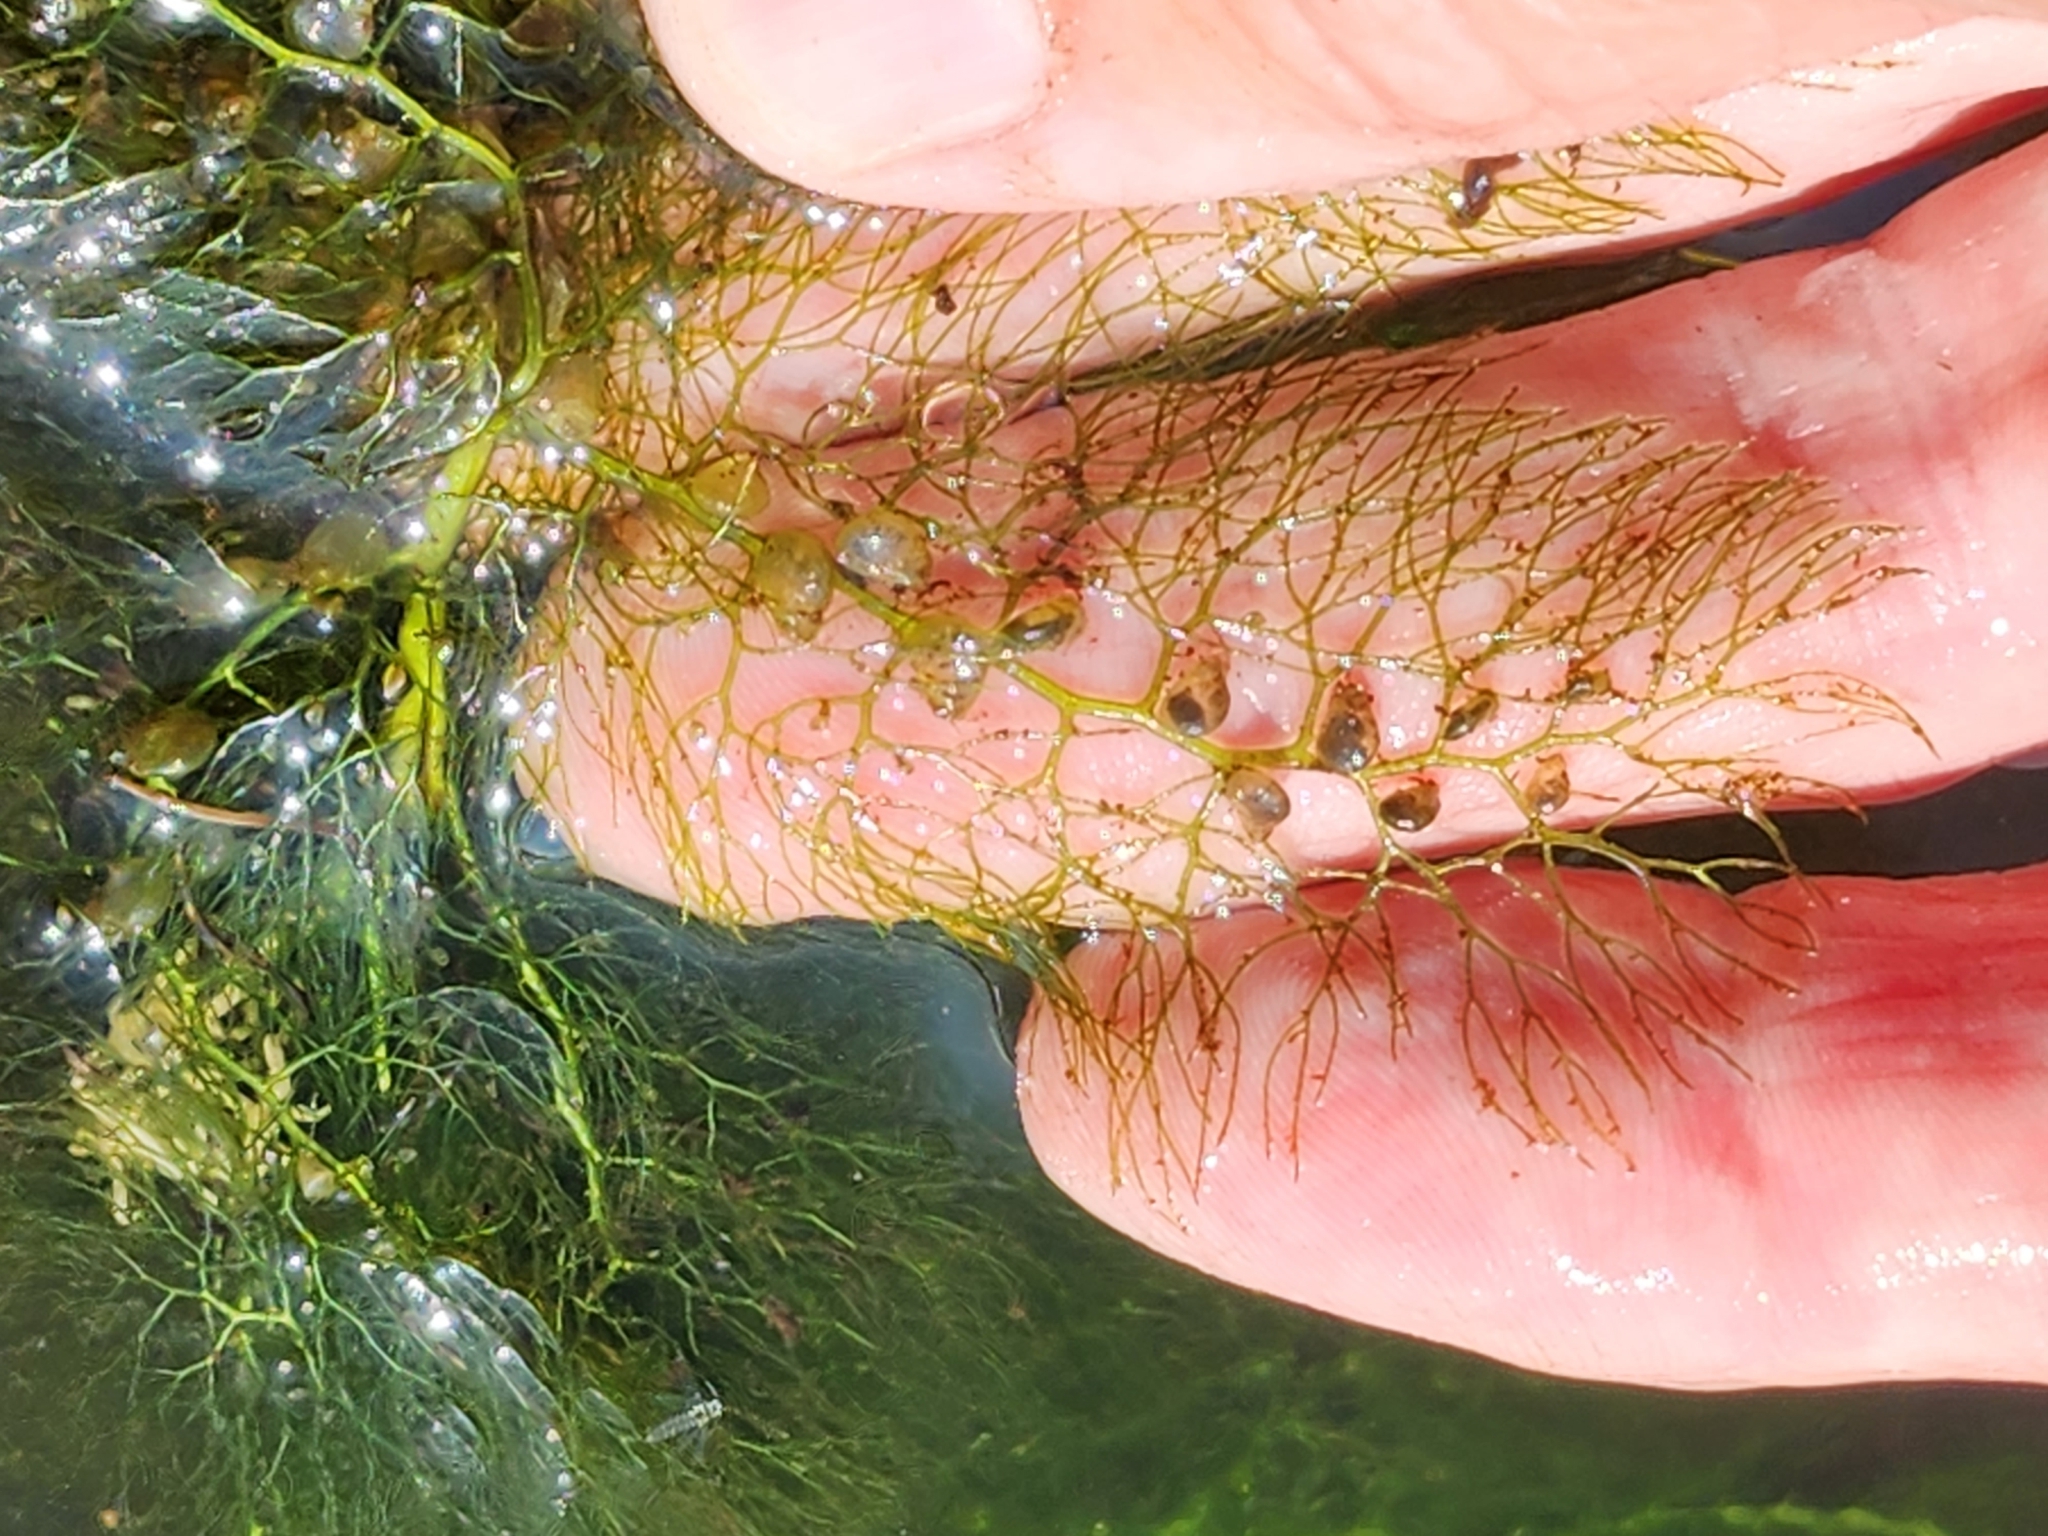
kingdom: Plantae
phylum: Tracheophyta
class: Magnoliopsida
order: Lamiales
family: Lentibulariaceae
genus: Utricularia
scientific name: Utricularia macrorhiza
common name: Common bladderwort
